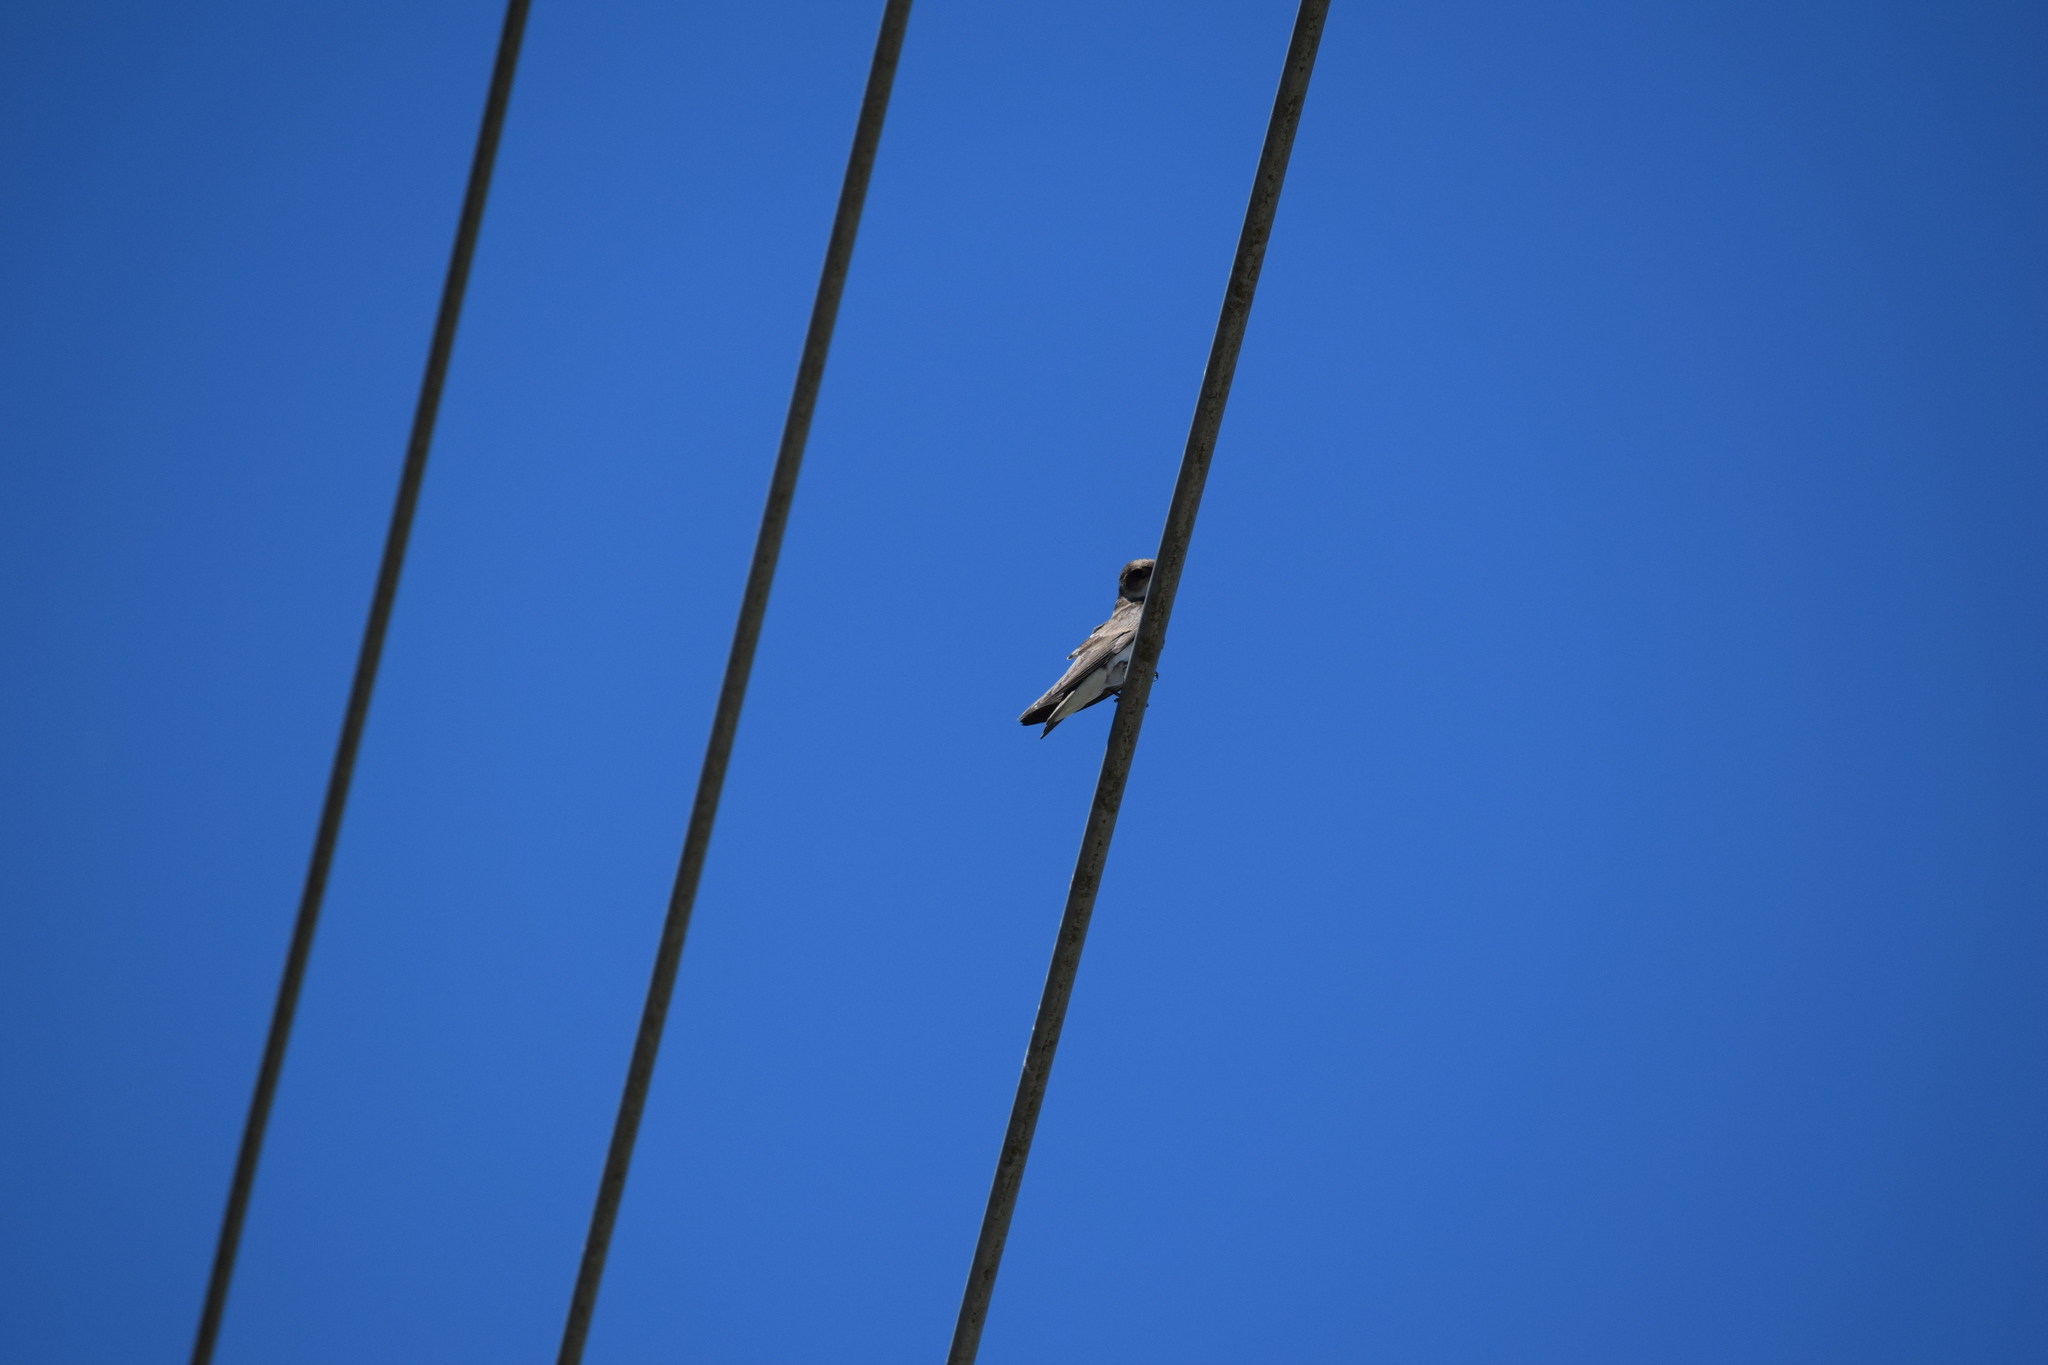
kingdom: Animalia
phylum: Chordata
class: Aves
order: Passeriformes
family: Hirundinidae
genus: Progne
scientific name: Progne tapera
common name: Brown-chested martin
